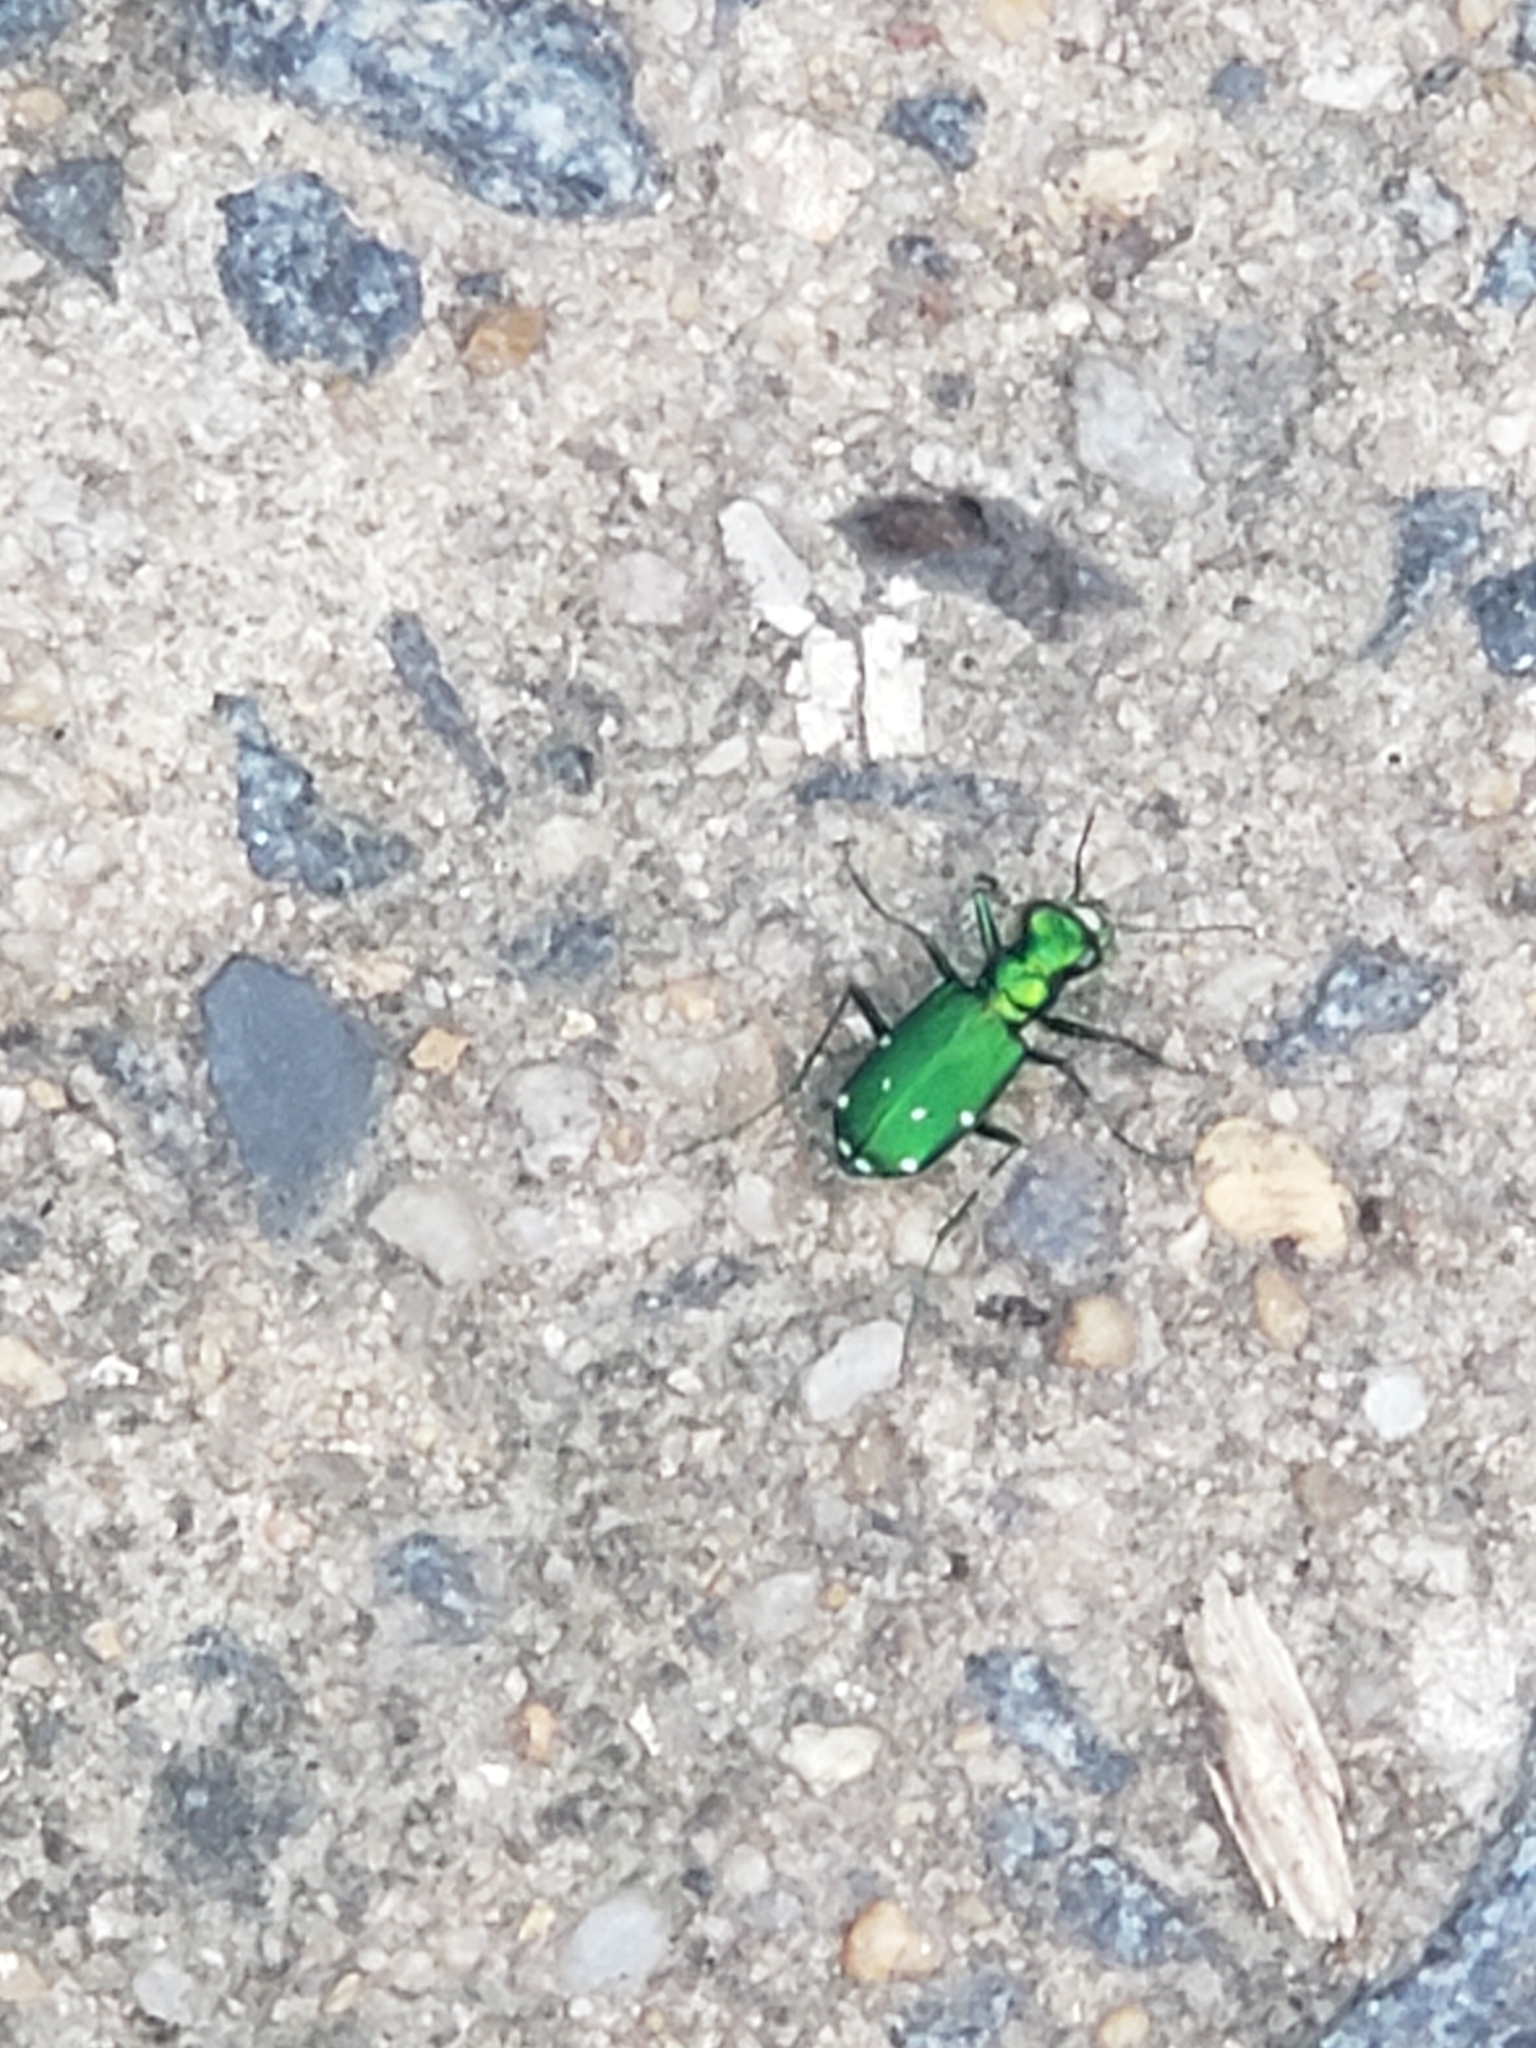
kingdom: Animalia
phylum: Arthropoda
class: Insecta
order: Coleoptera
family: Carabidae
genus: Cicindela
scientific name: Cicindela sexguttata
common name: Six-spotted tiger beetle
